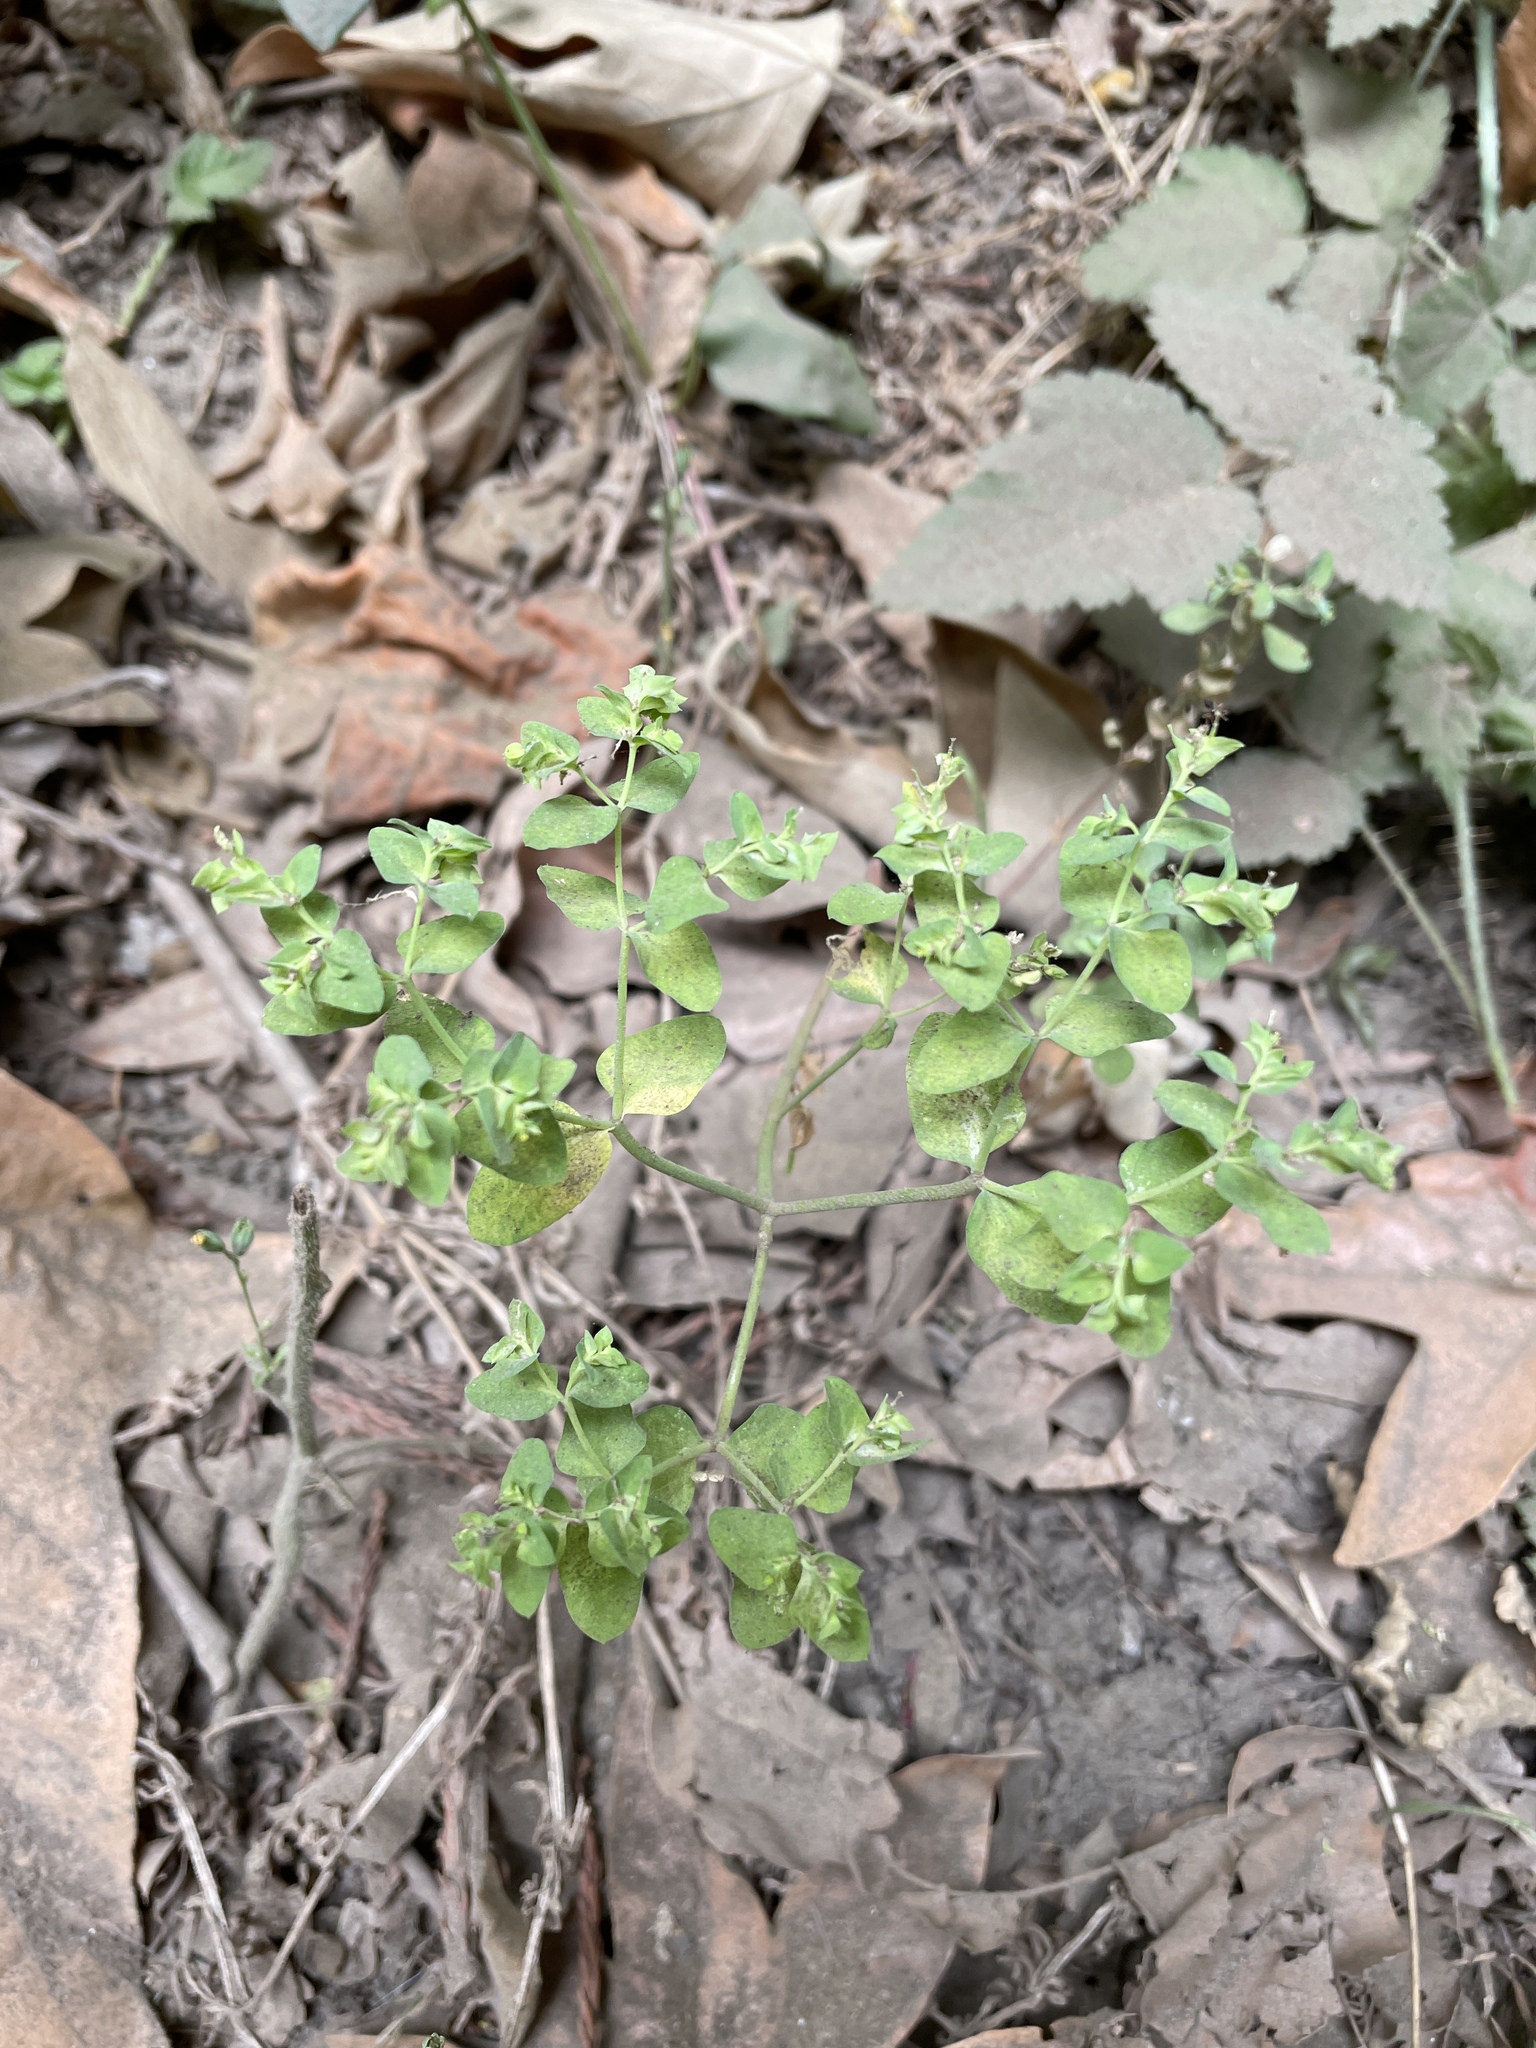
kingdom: Plantae
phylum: Tracheophyta
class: Magnoliopsida
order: Malpighiales
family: Euphorbiaceae
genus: Euphorbia
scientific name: Euphorbia peplus
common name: Petty spurge
